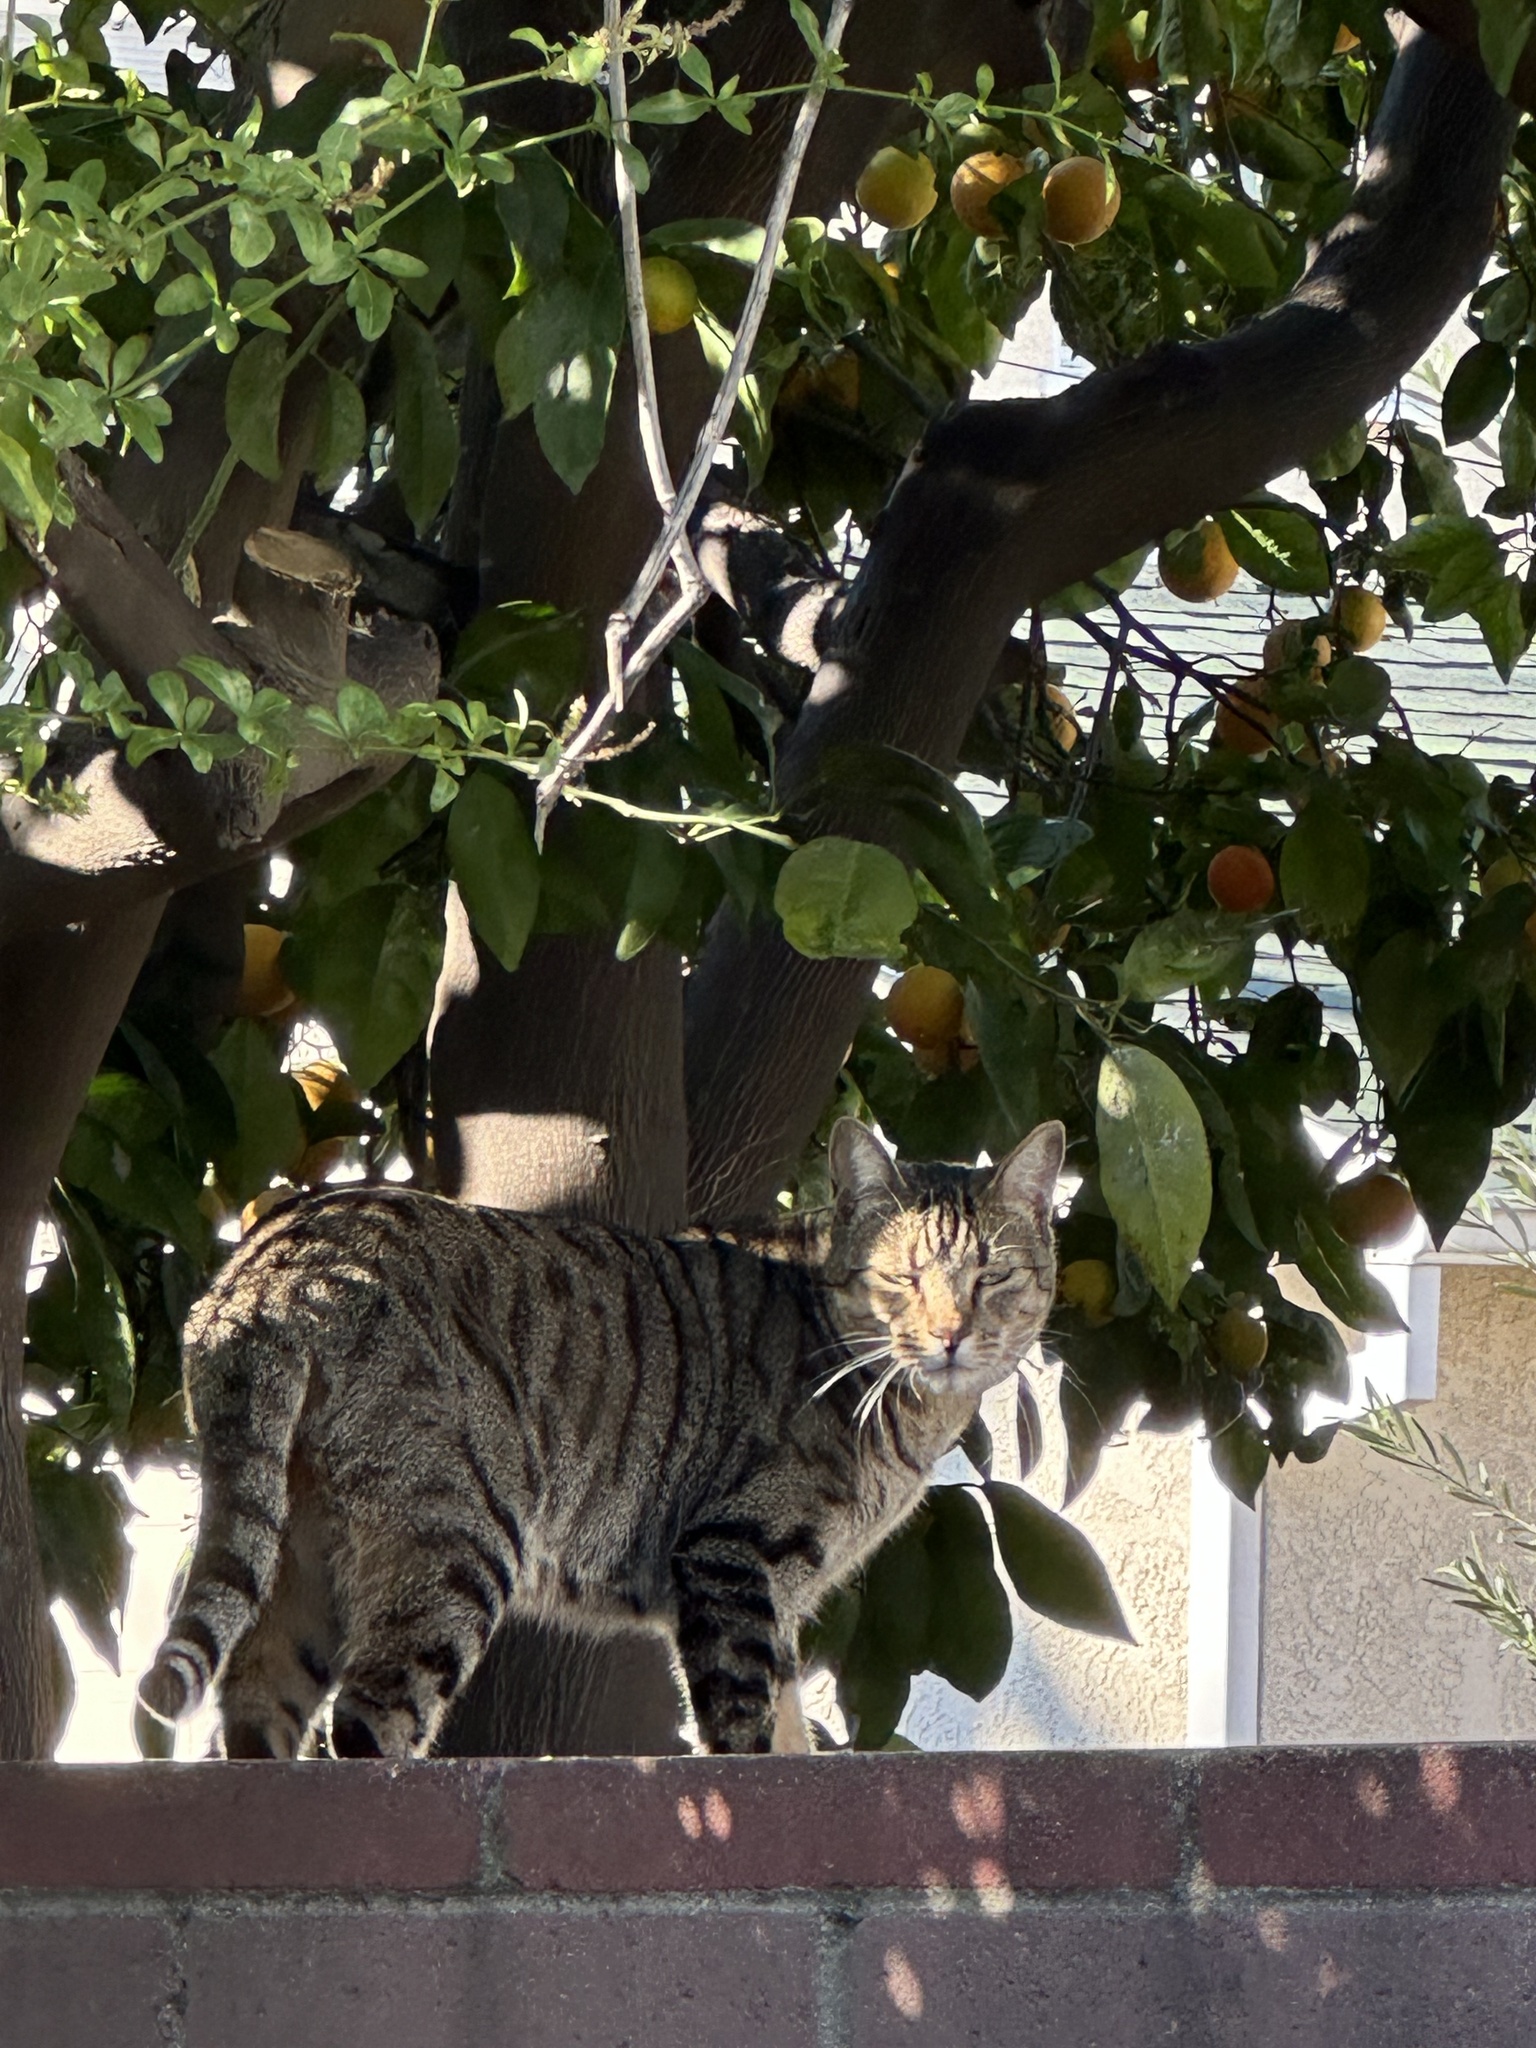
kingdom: Animalia
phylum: Chordata
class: Mammalia
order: Carnivora
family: Felidae
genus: Felis
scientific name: Felis catus
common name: Domestic cat
